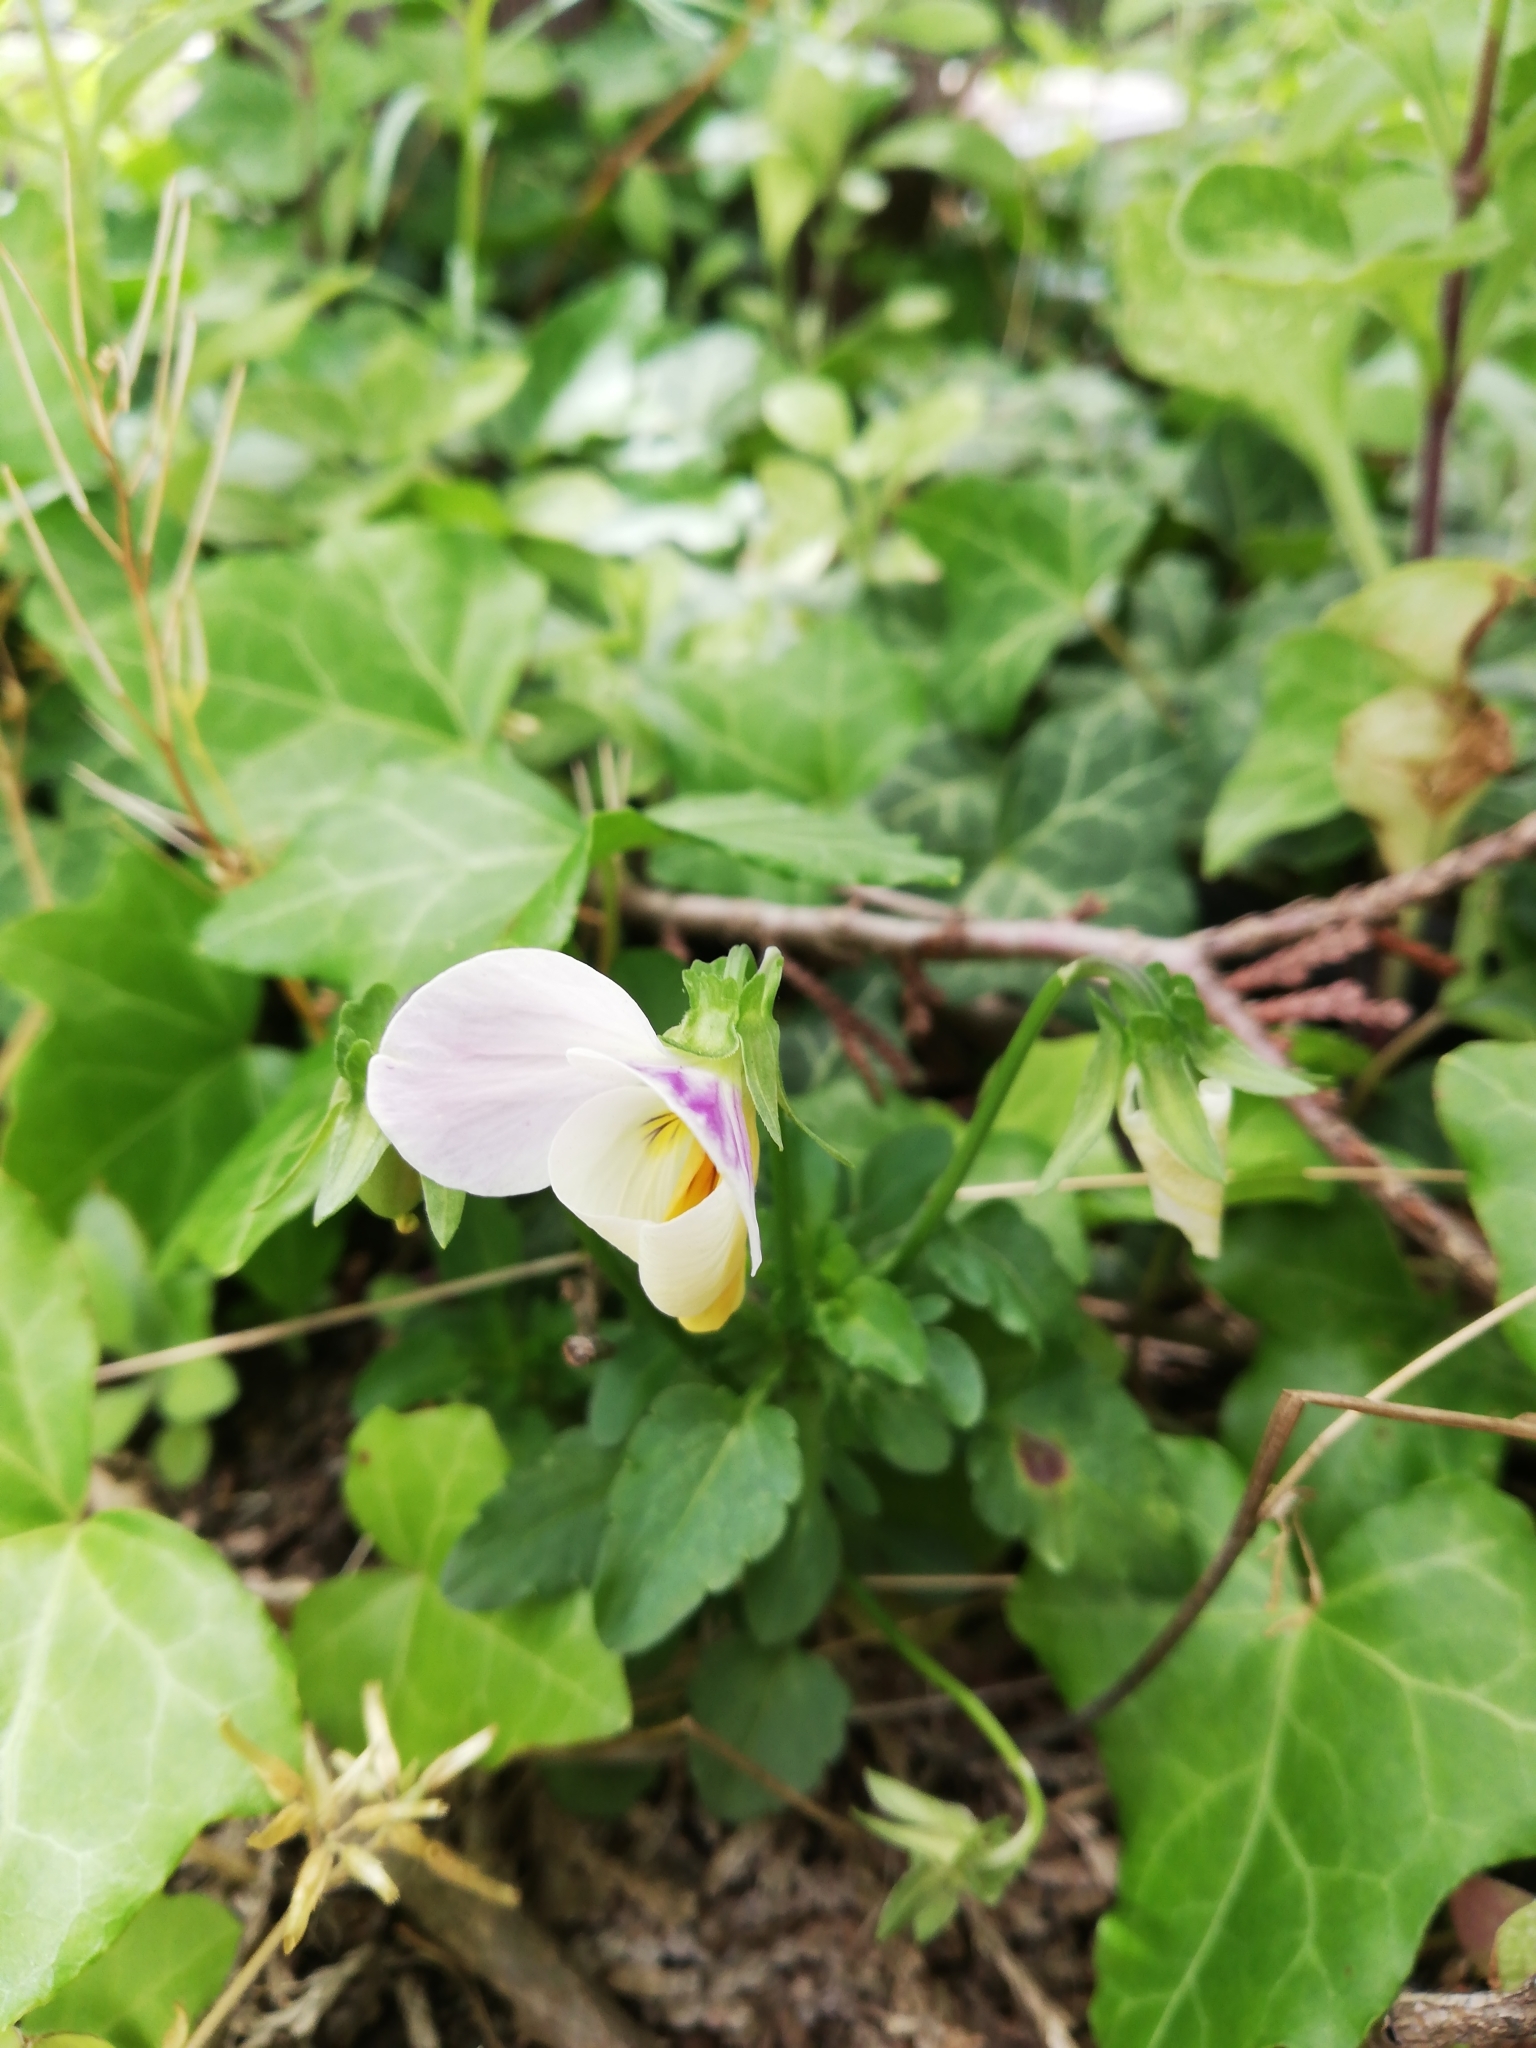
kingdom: Plantae
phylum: Tracheophyta
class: Magnoliopsida
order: Malpighiales
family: Violaceae
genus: Viola
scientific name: Viola tricolor
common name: Pansy
